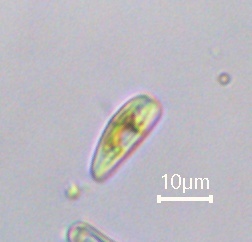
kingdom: Chromista
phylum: Ochrophyta
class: Bacillariophyceae
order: Cymbellales
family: Rhoicospheniaceae
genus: Rhoicosphenia
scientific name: Rhoicosphenia abbreviata
